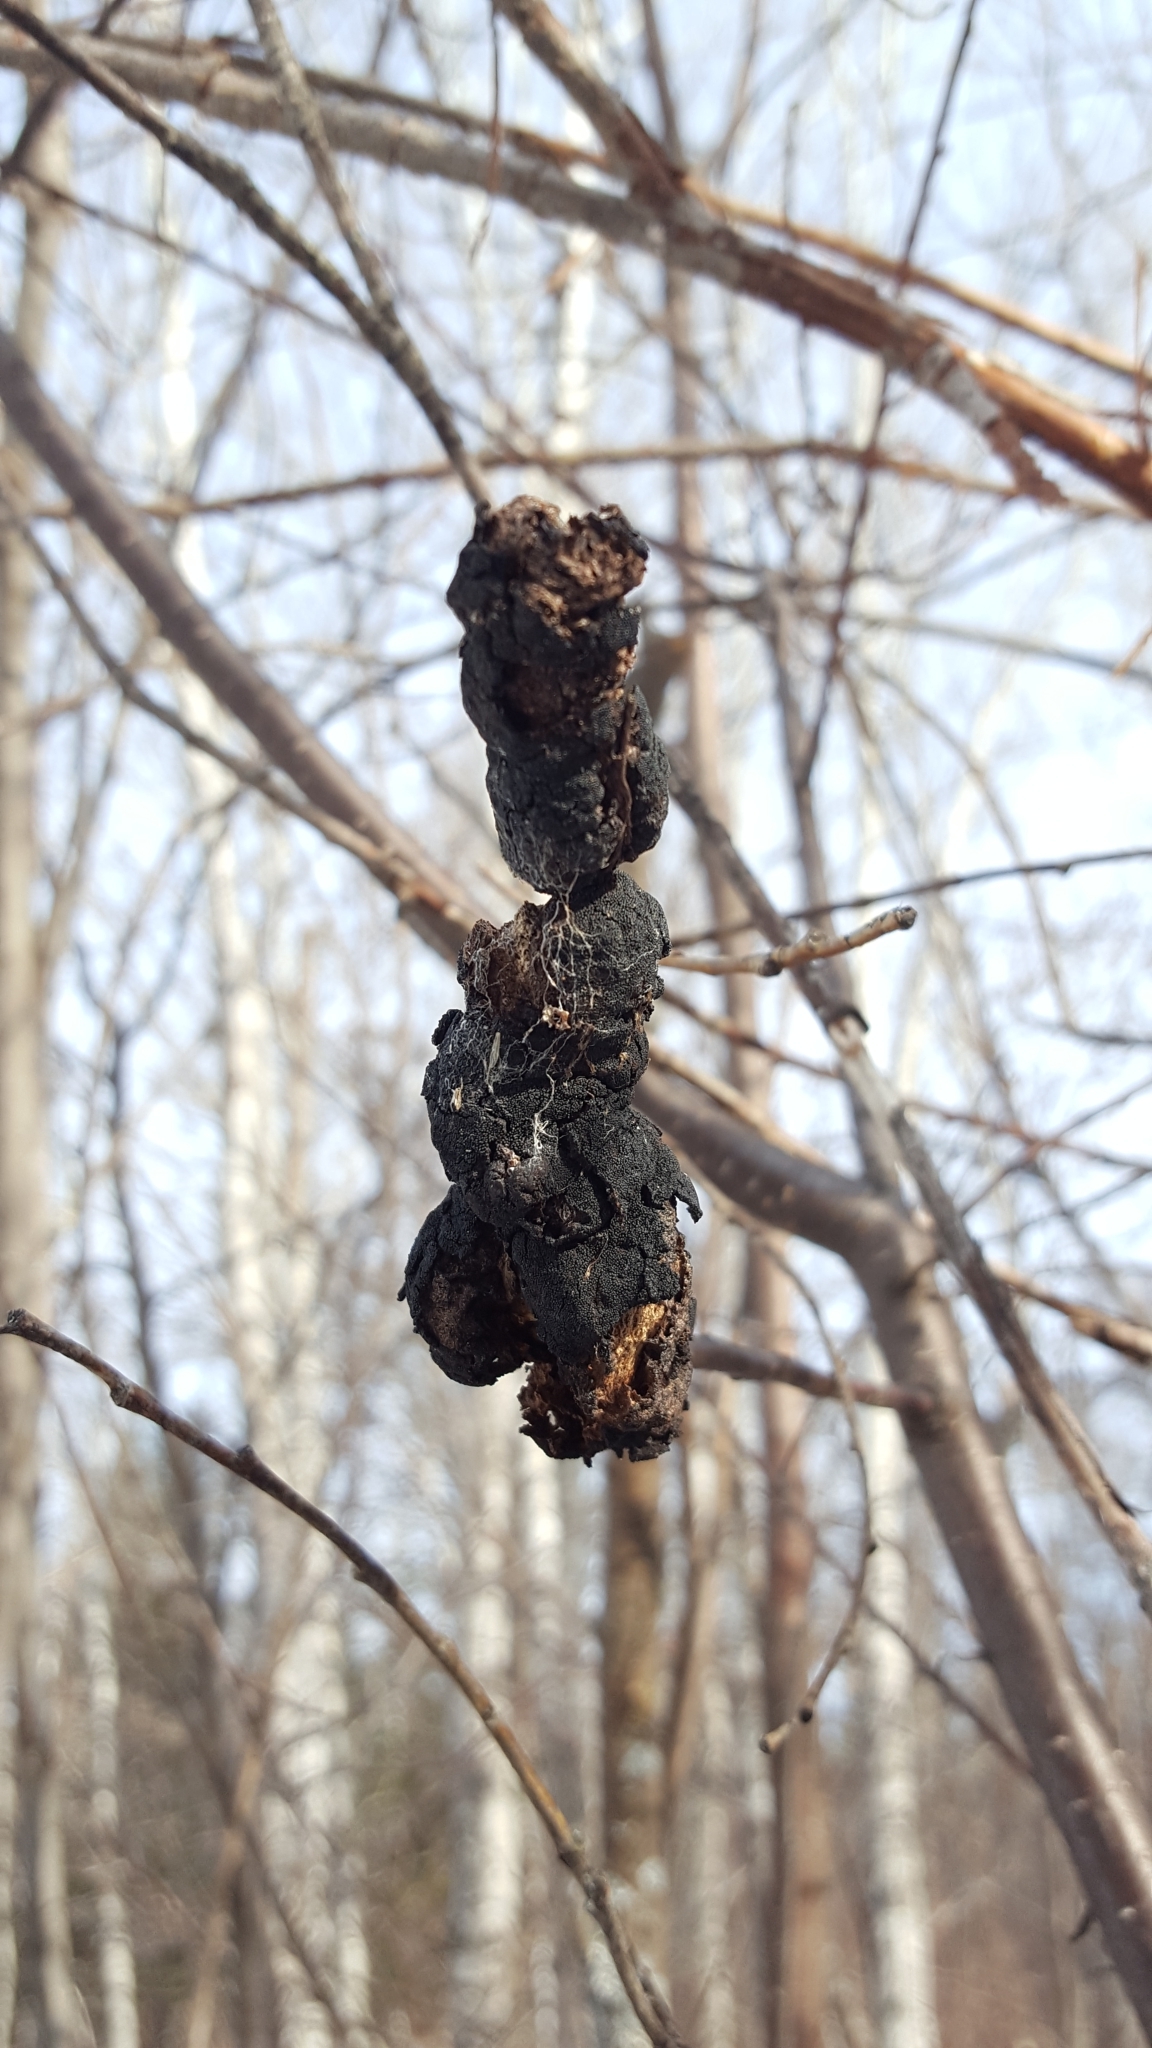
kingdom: Fungi
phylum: Ascomycota
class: Dothideomycetes
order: Venturiales
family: Venturiaceae
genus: Apiosporina
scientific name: Apiosporina morbosa
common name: Black knot
